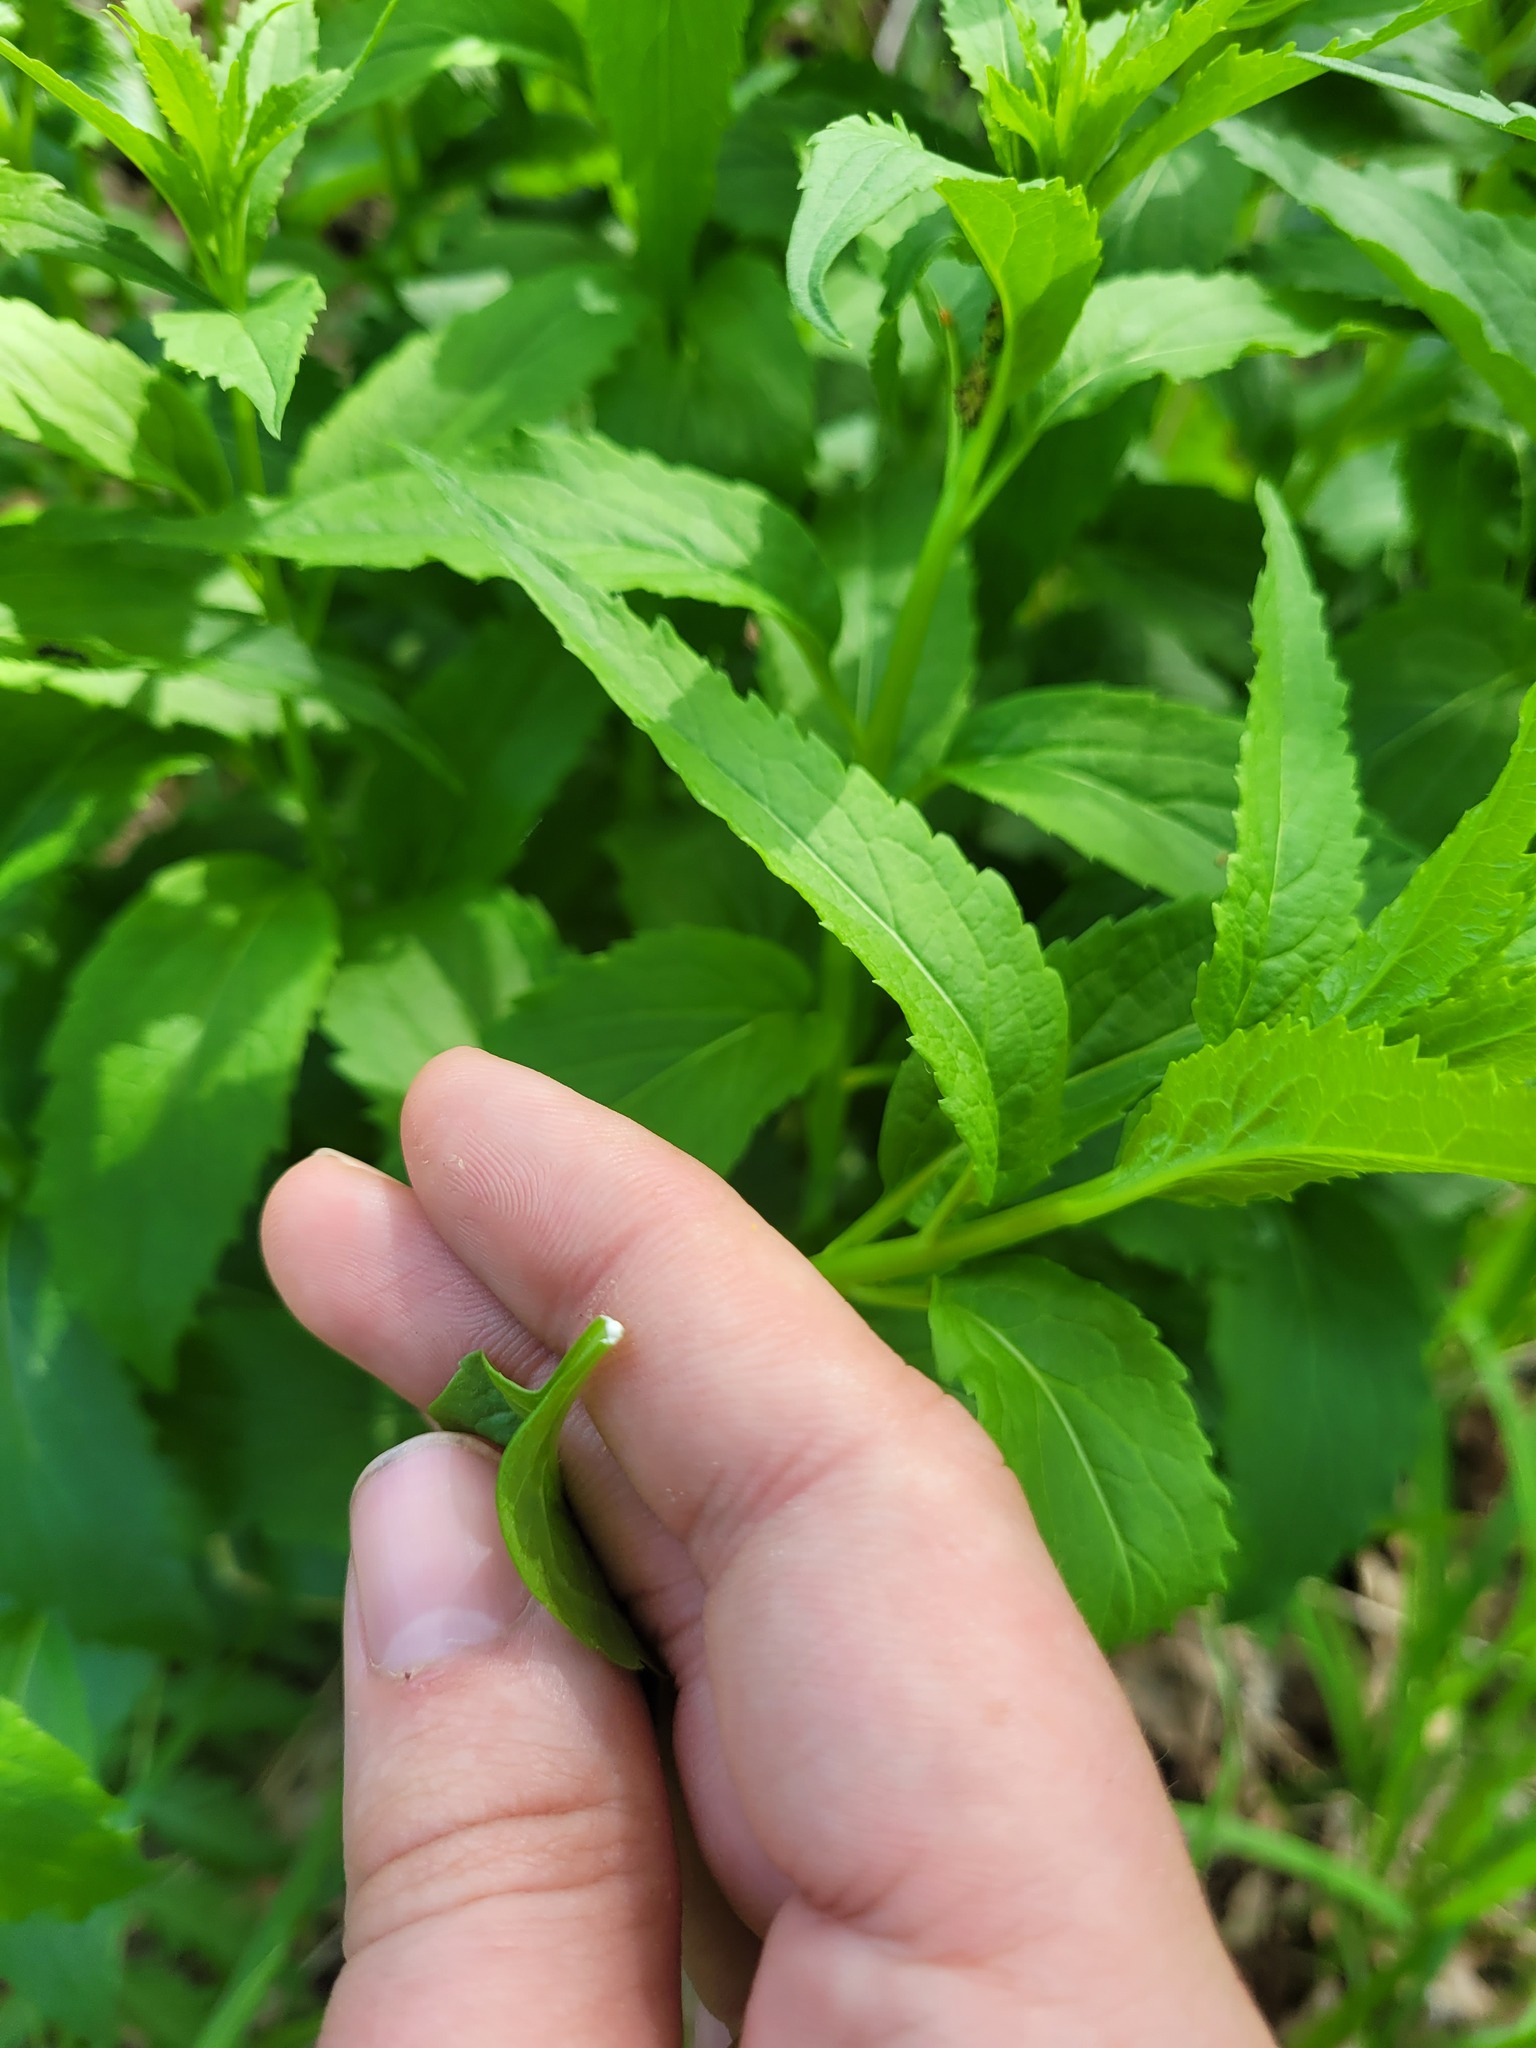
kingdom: Plantae
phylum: Tracheophyta
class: Magnoliopsida
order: Asterales
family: Campanulaceae
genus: Adenophora
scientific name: Adenophora liliifolia
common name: Lilyleaf ladybells
